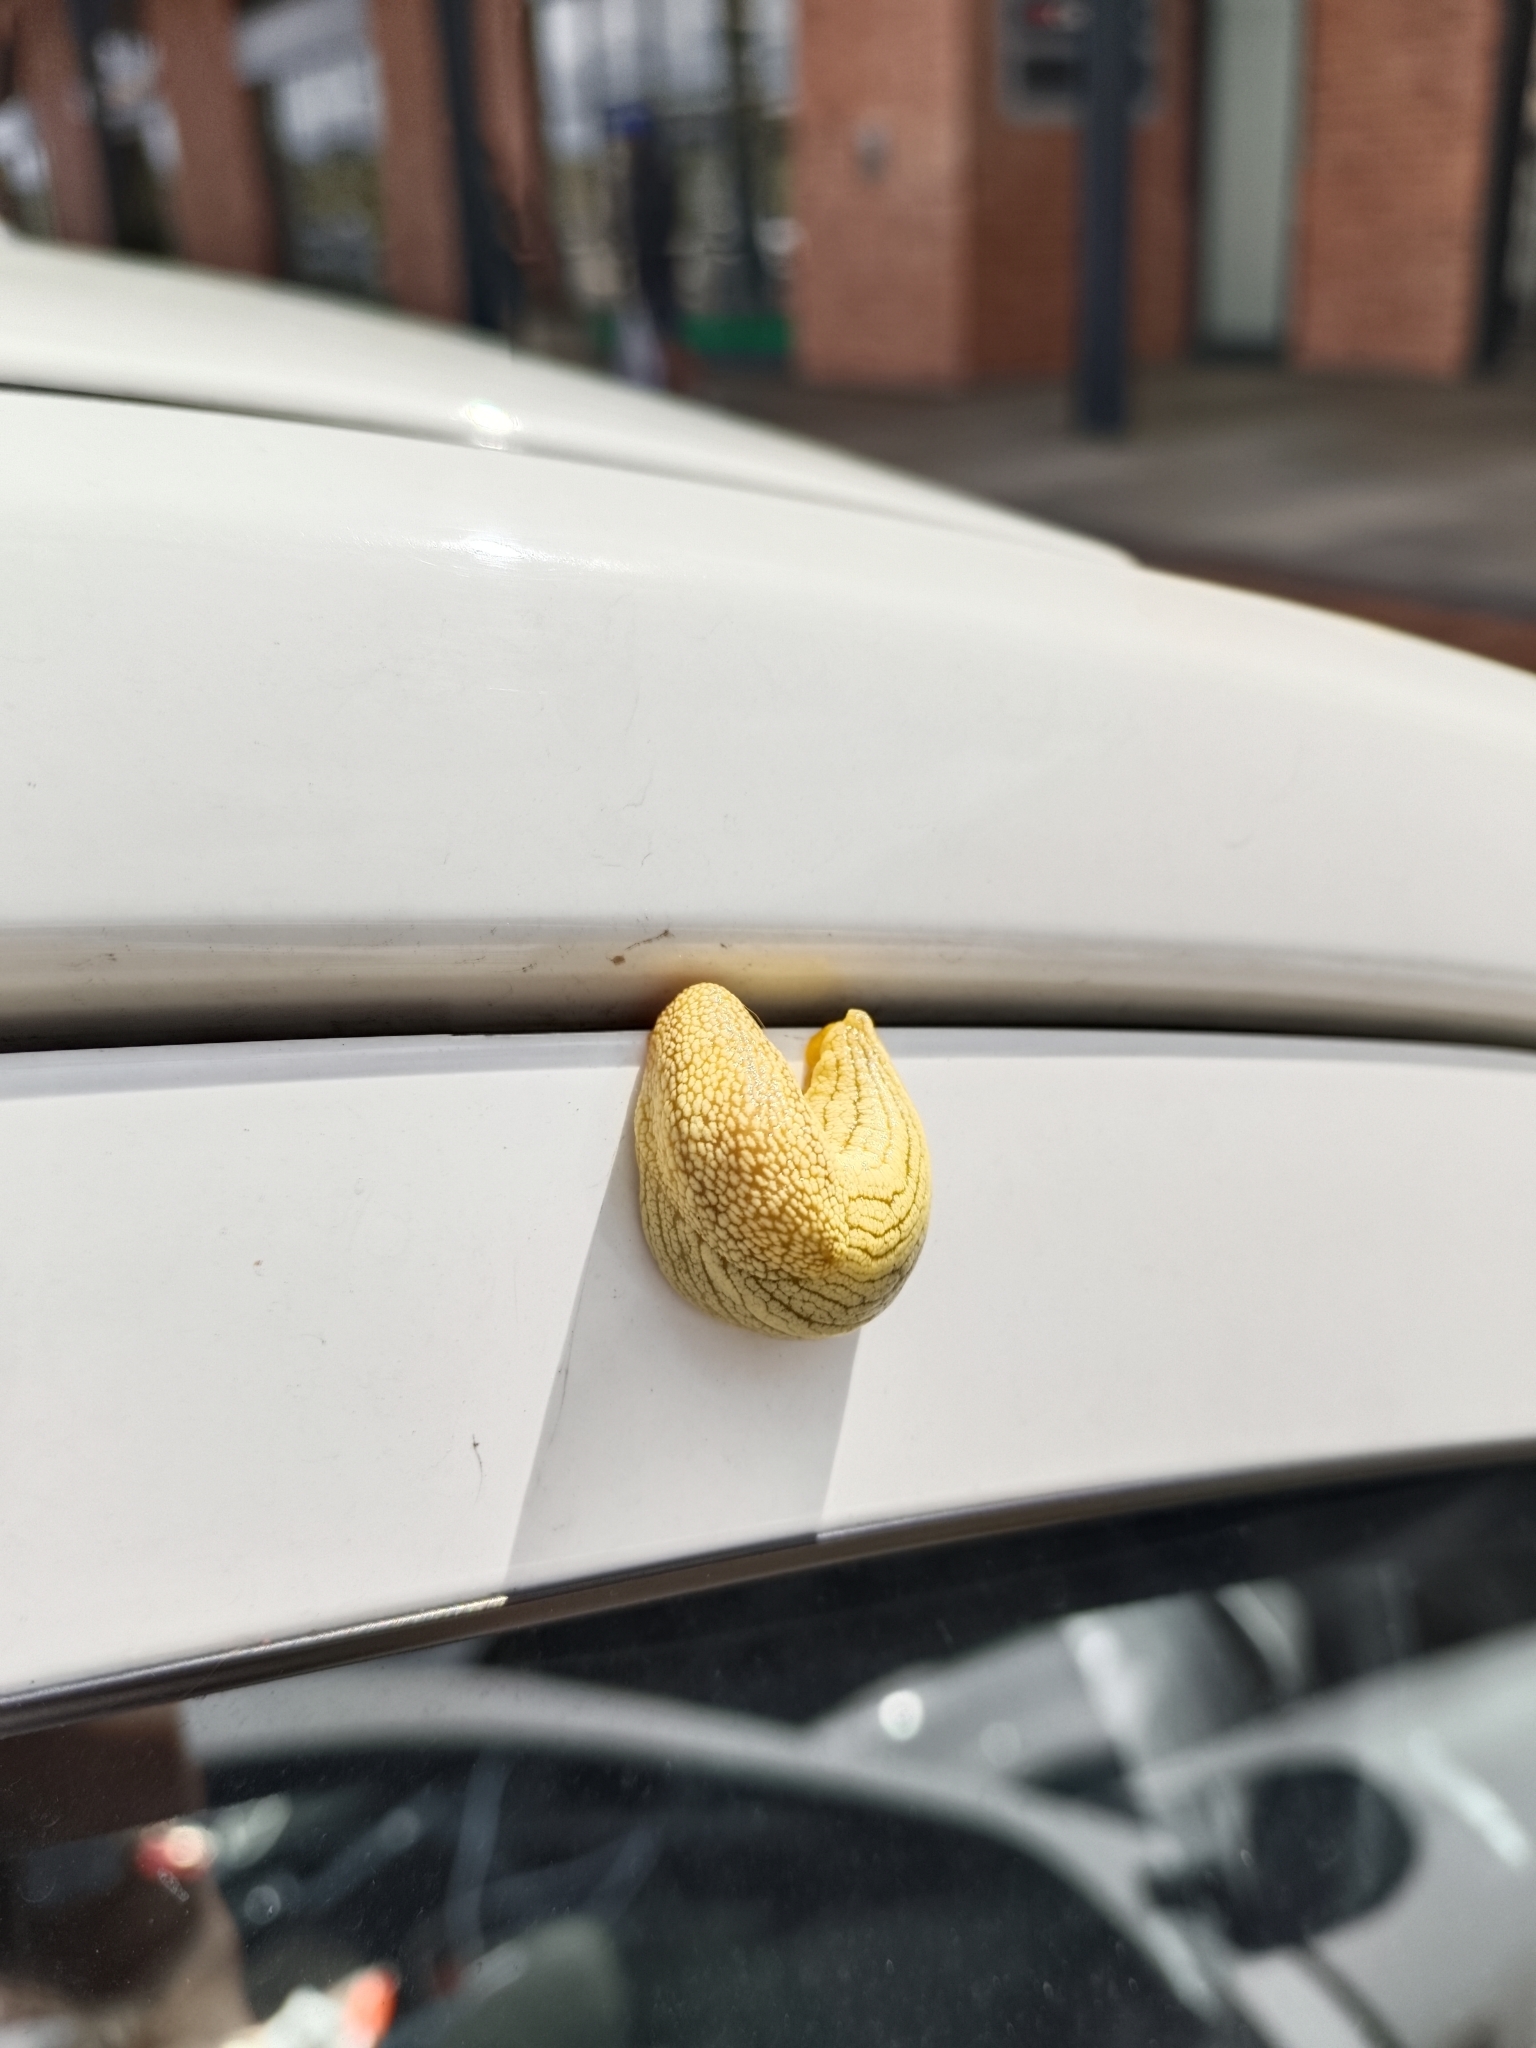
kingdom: Animalia
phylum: Mollusca
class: Gastropoda
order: Stylommatophora
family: Urocyclidae
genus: Elisolimax
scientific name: Elisolimax flavescens
